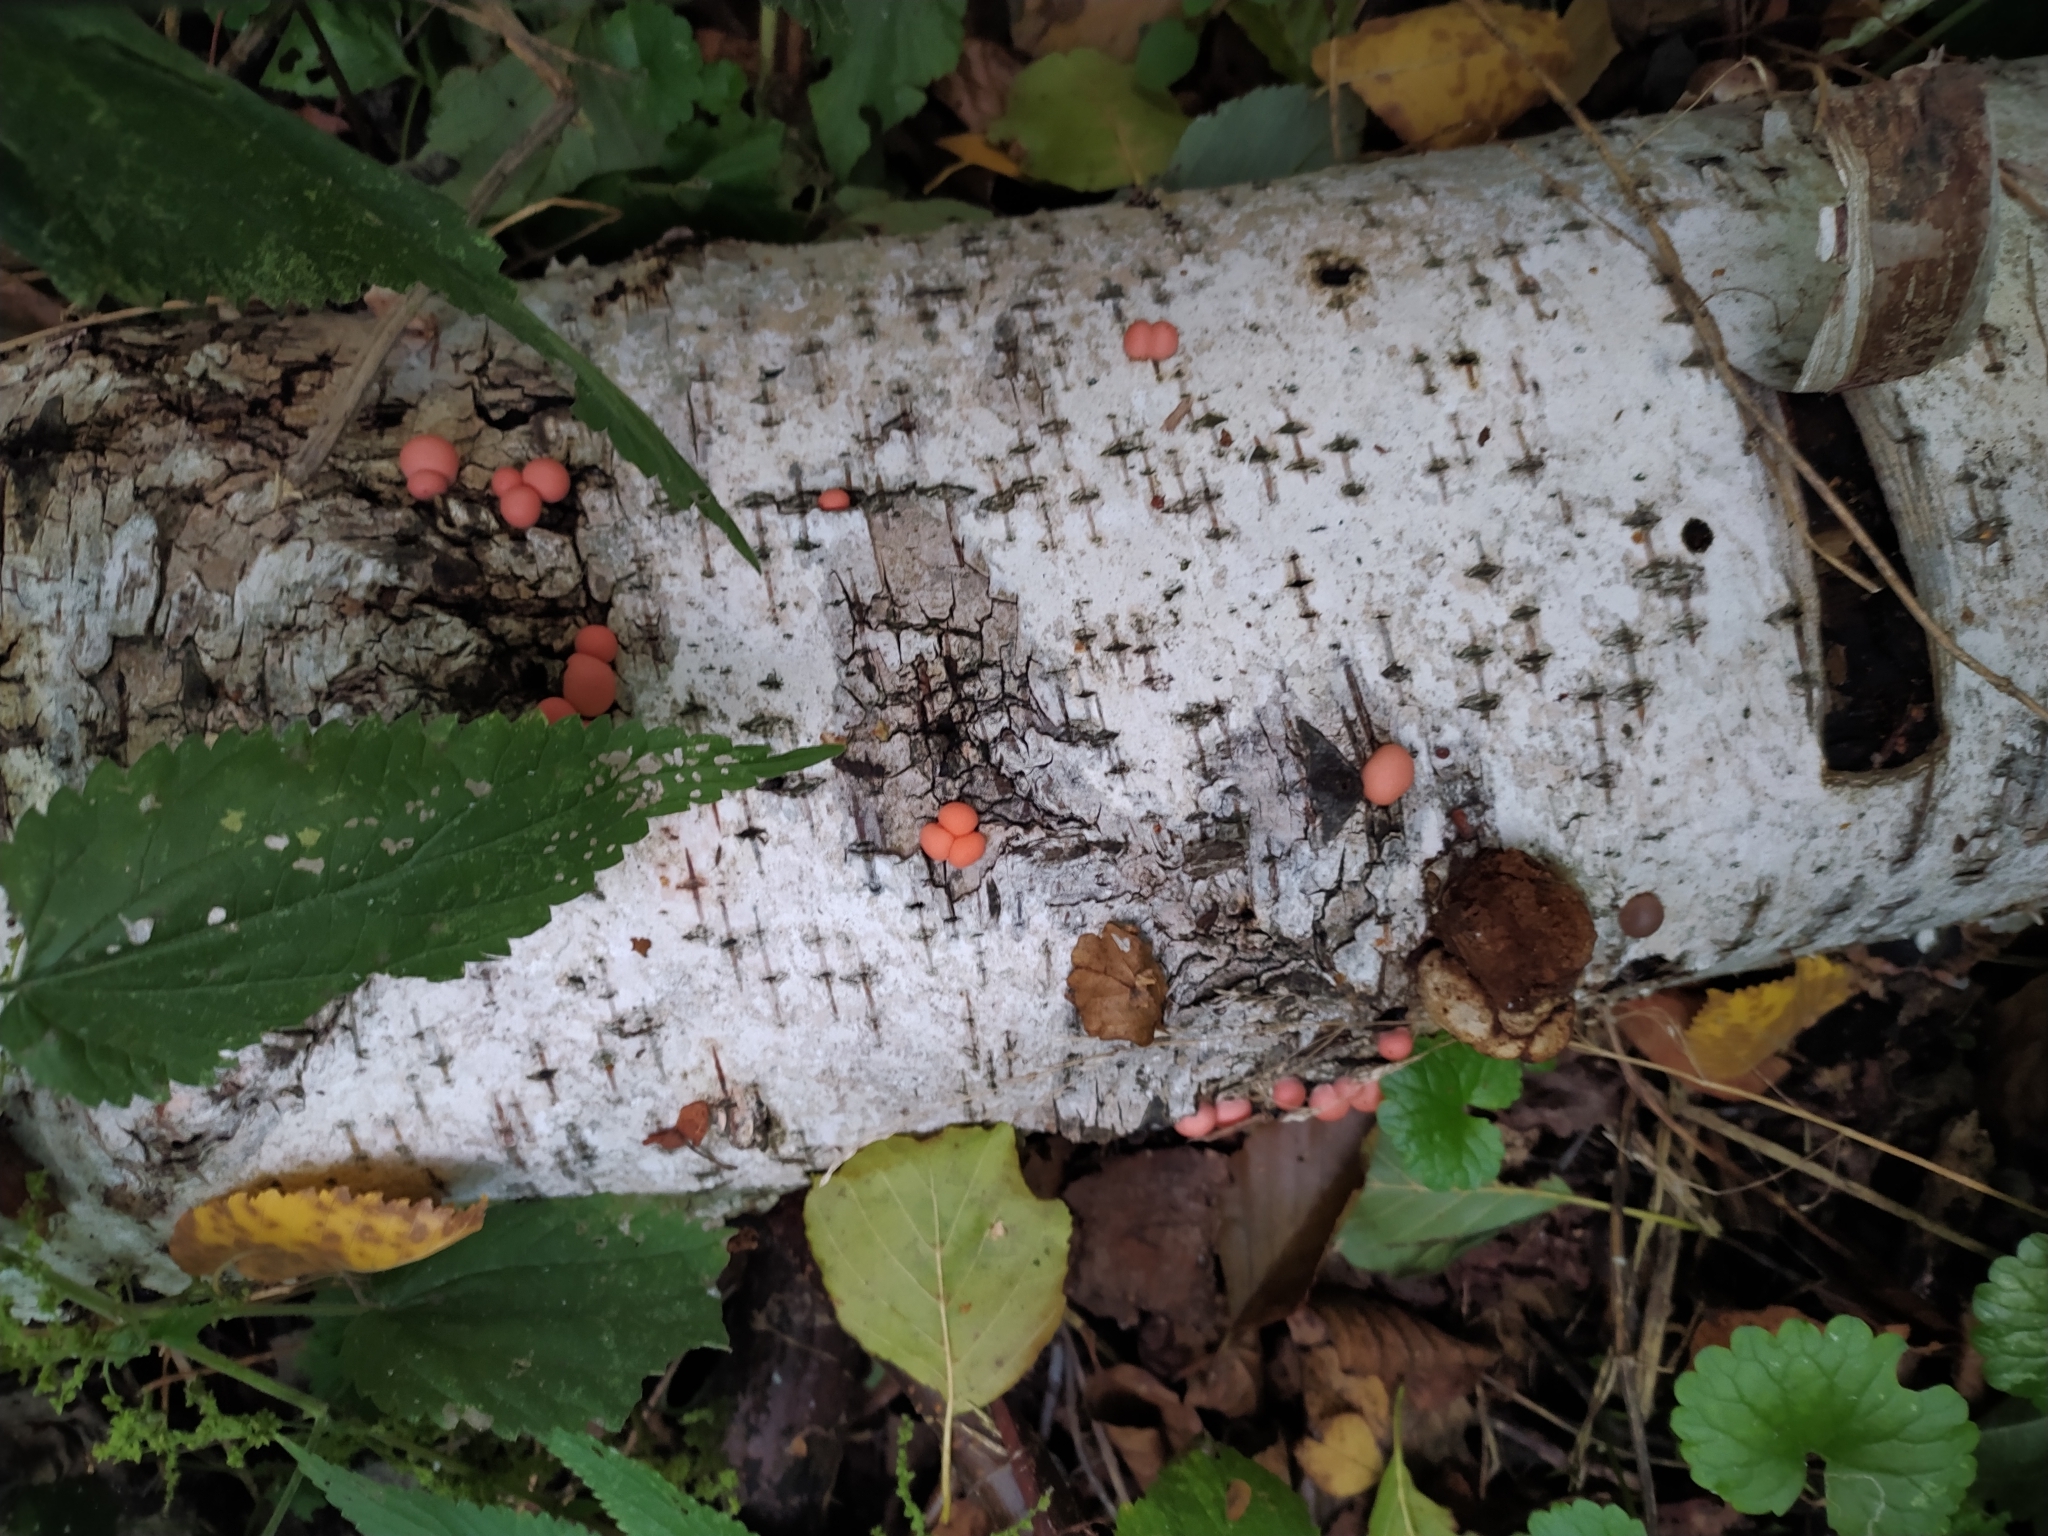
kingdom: Protozoa
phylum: Mycetozoa
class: Myxomycetes
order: Cribrariales
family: Tubiferaceae
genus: Lycogala
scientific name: Lycogala epidendrum
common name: Wolf's milk
